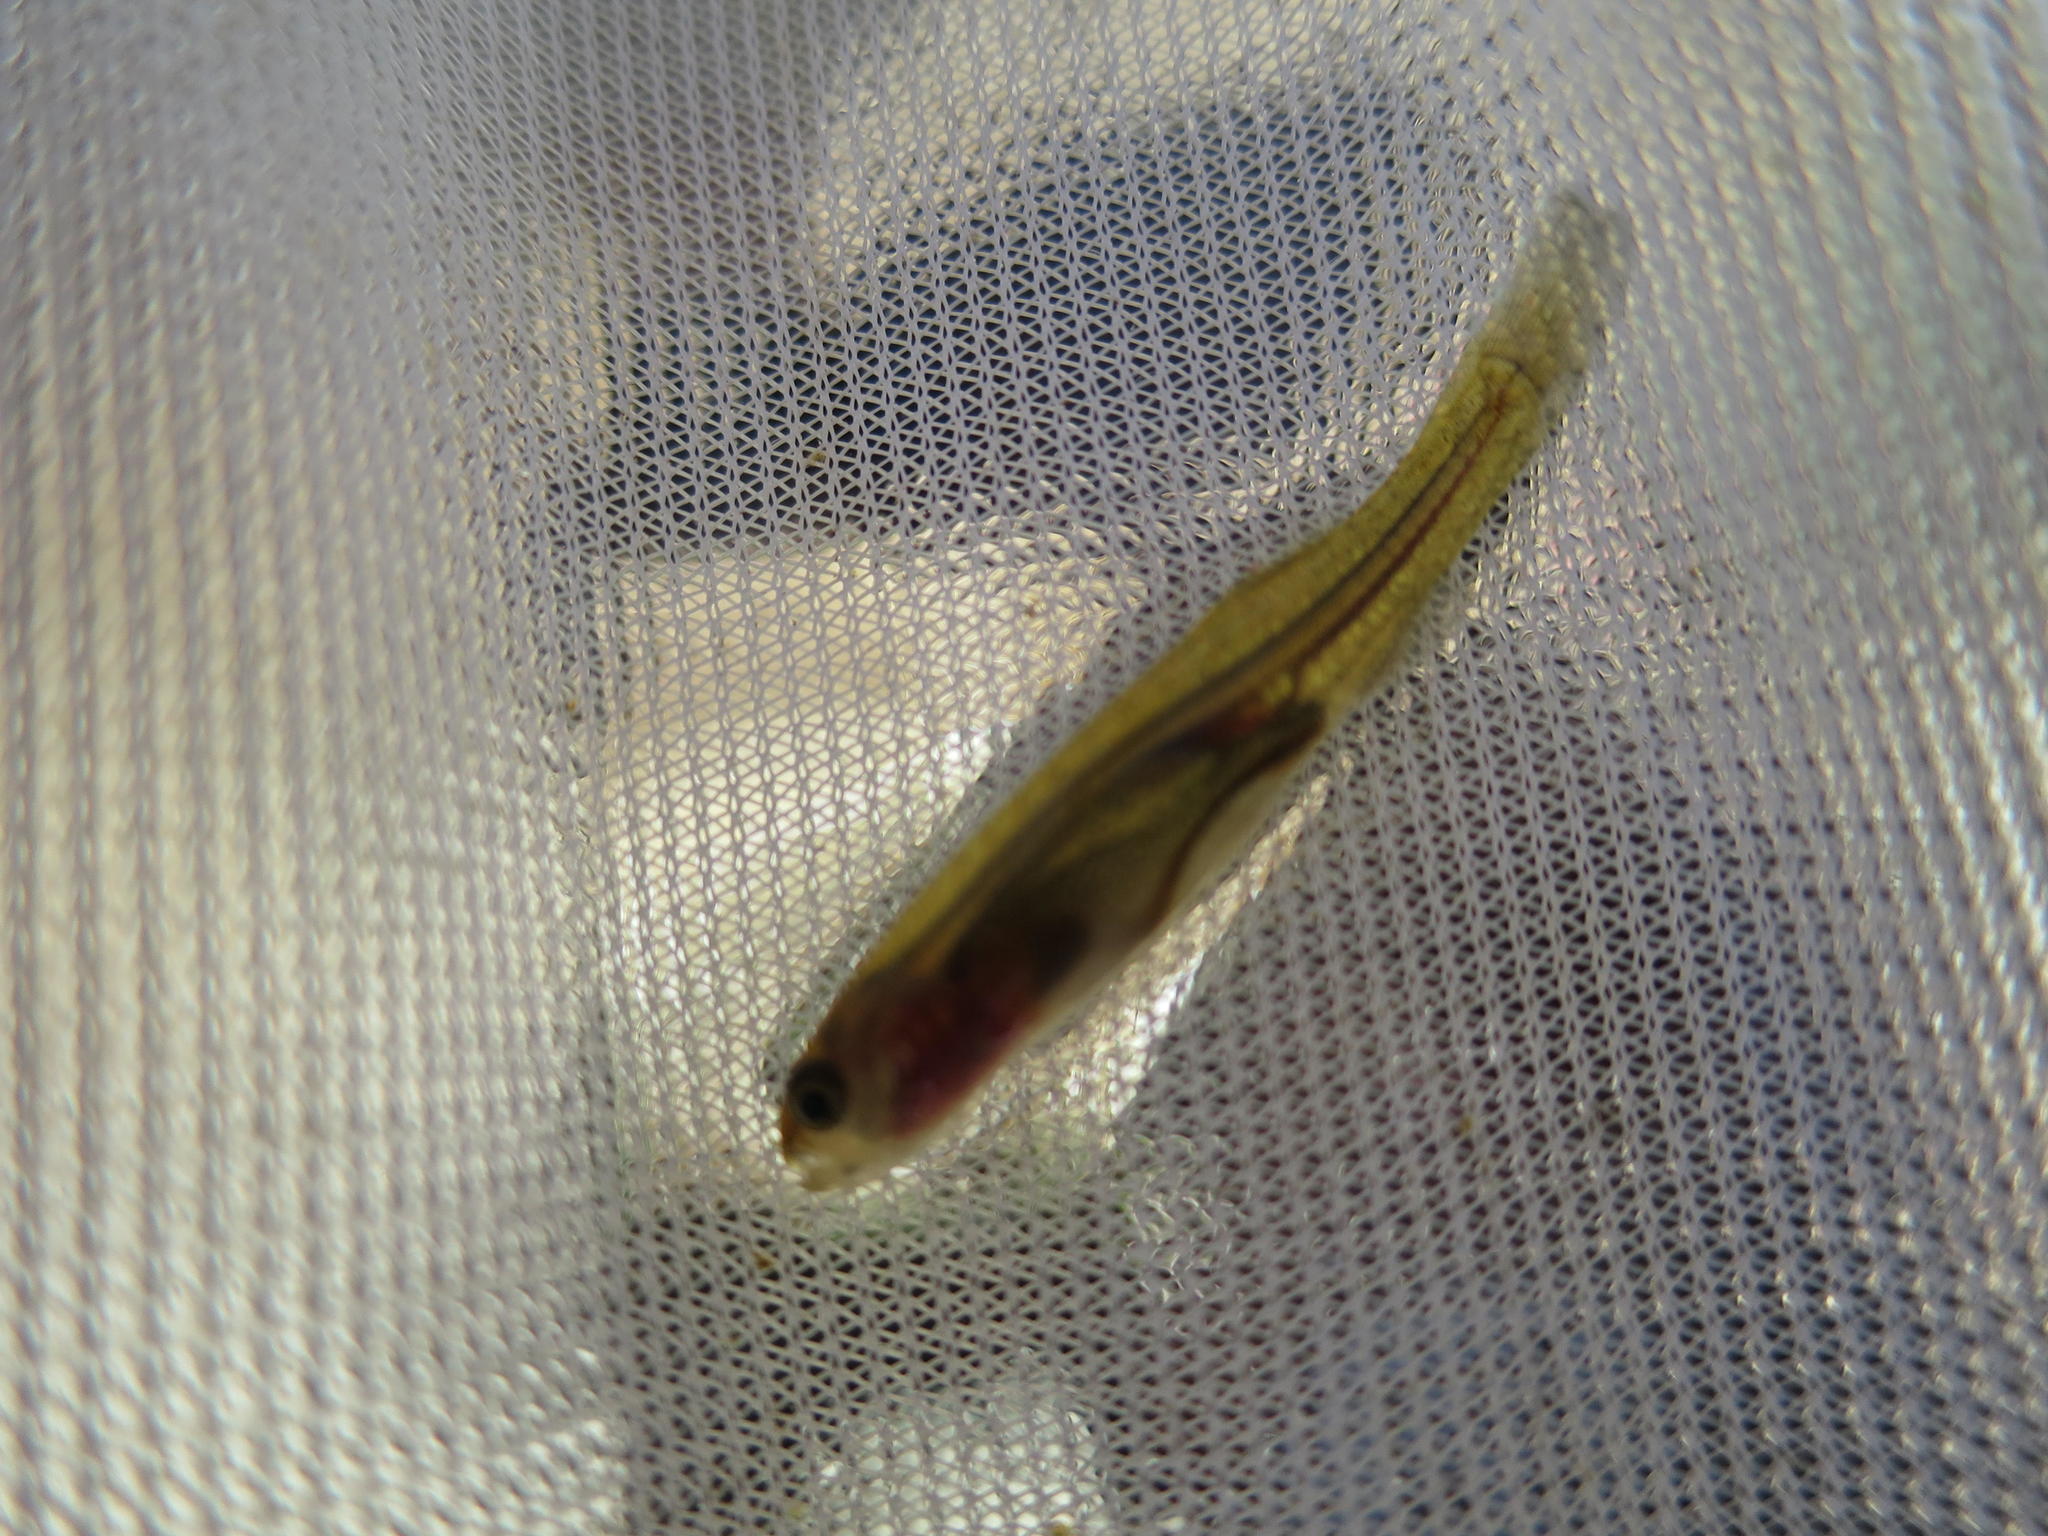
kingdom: Animalia
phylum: Chordata
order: Osmeriformes
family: Galaxiidae
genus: Galaxias
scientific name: Galaxias zebratus
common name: Cape galaxias
